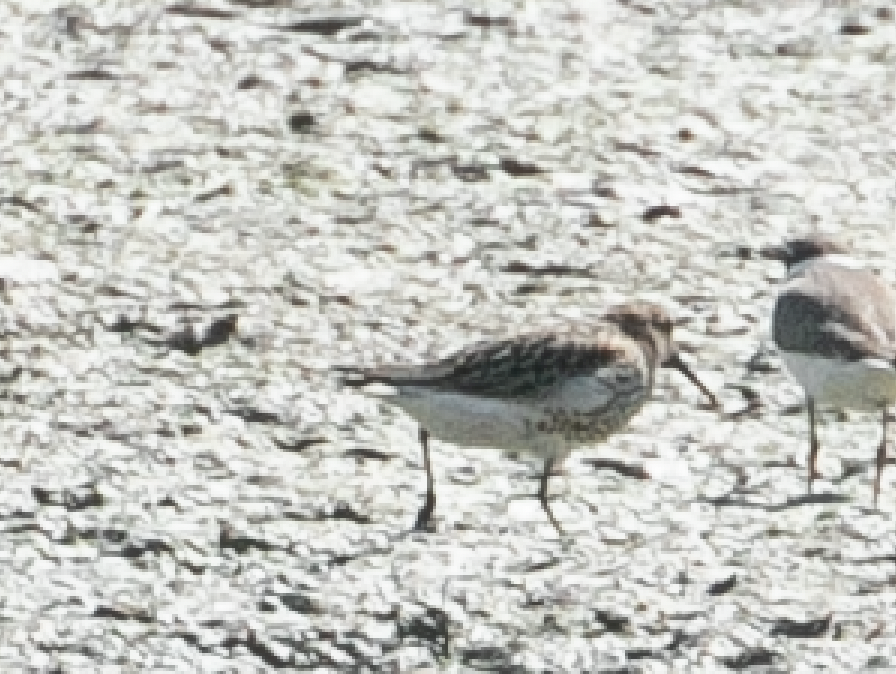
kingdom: Animalia
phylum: Chordata
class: Aves
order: Charadriiformes
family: Scolopacidae
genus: Calidris
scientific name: Calidris alpina
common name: Dunlin
